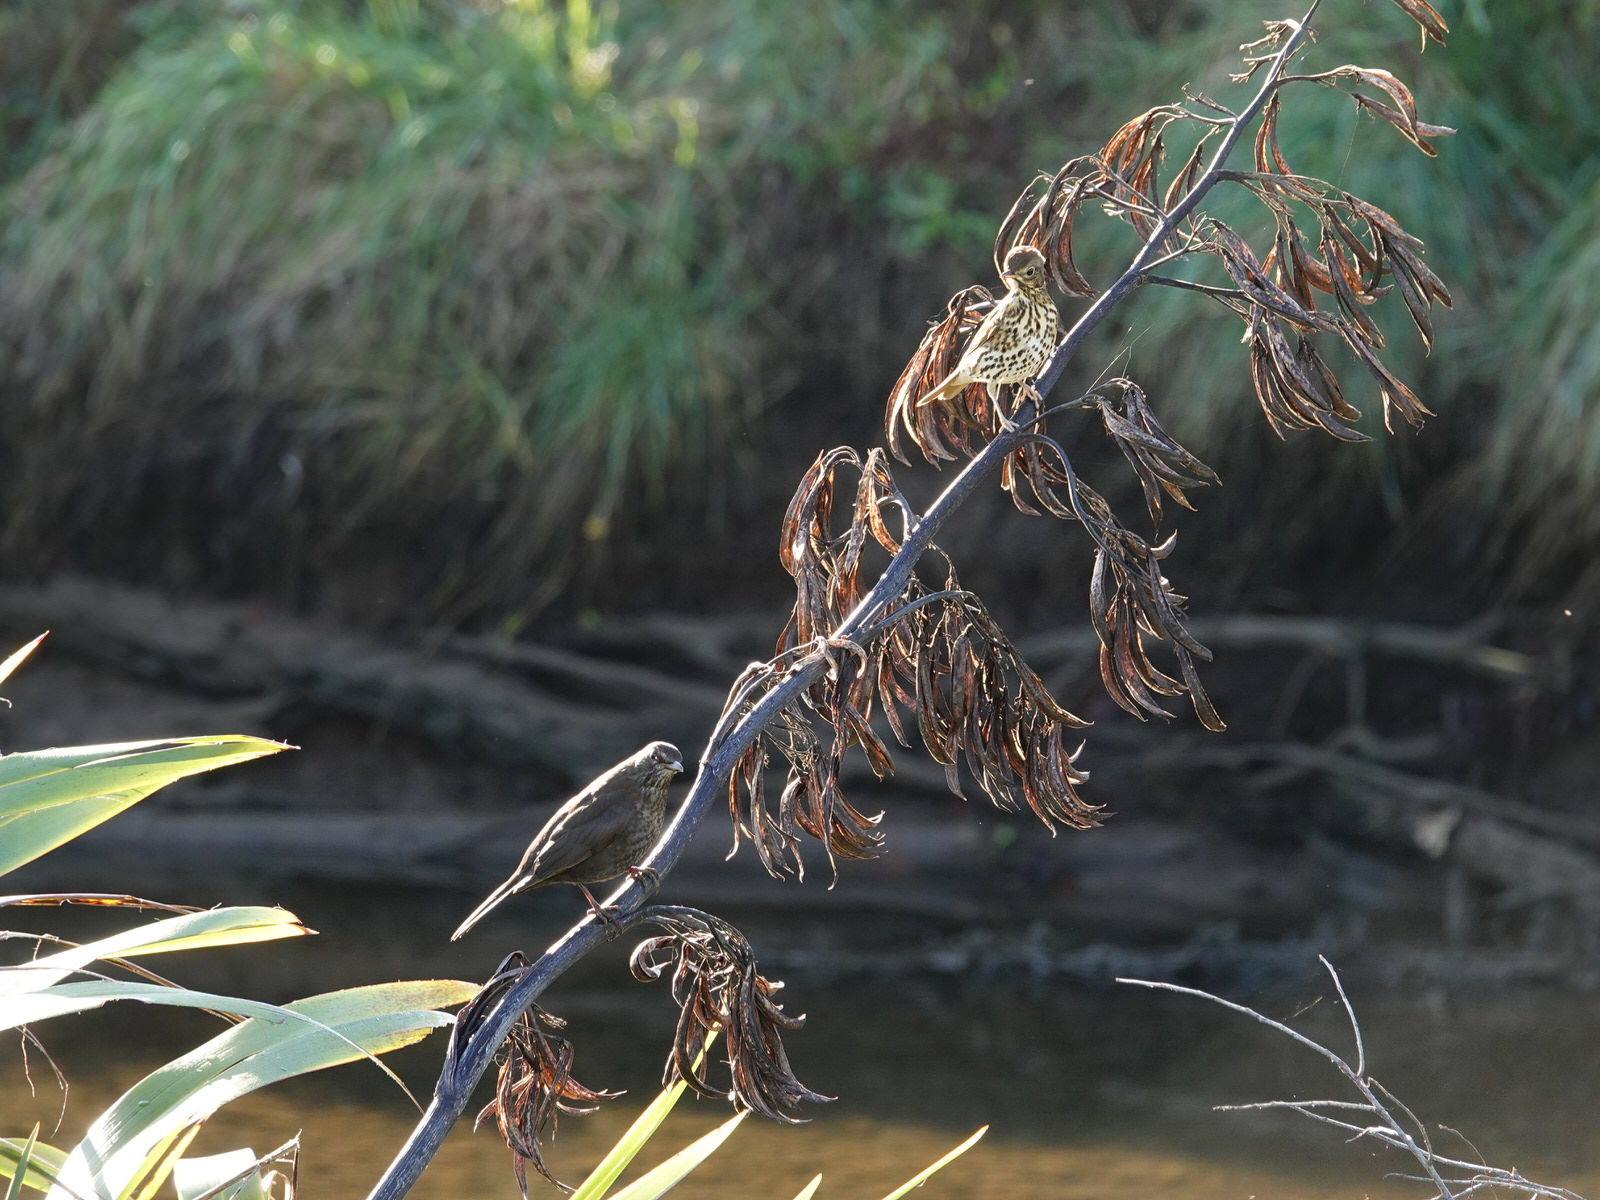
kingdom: Animalia
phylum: Chordata
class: Aves
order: Passeriformes
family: Turdidae
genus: Turdus
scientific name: Turdus merula
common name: Common blackbird
